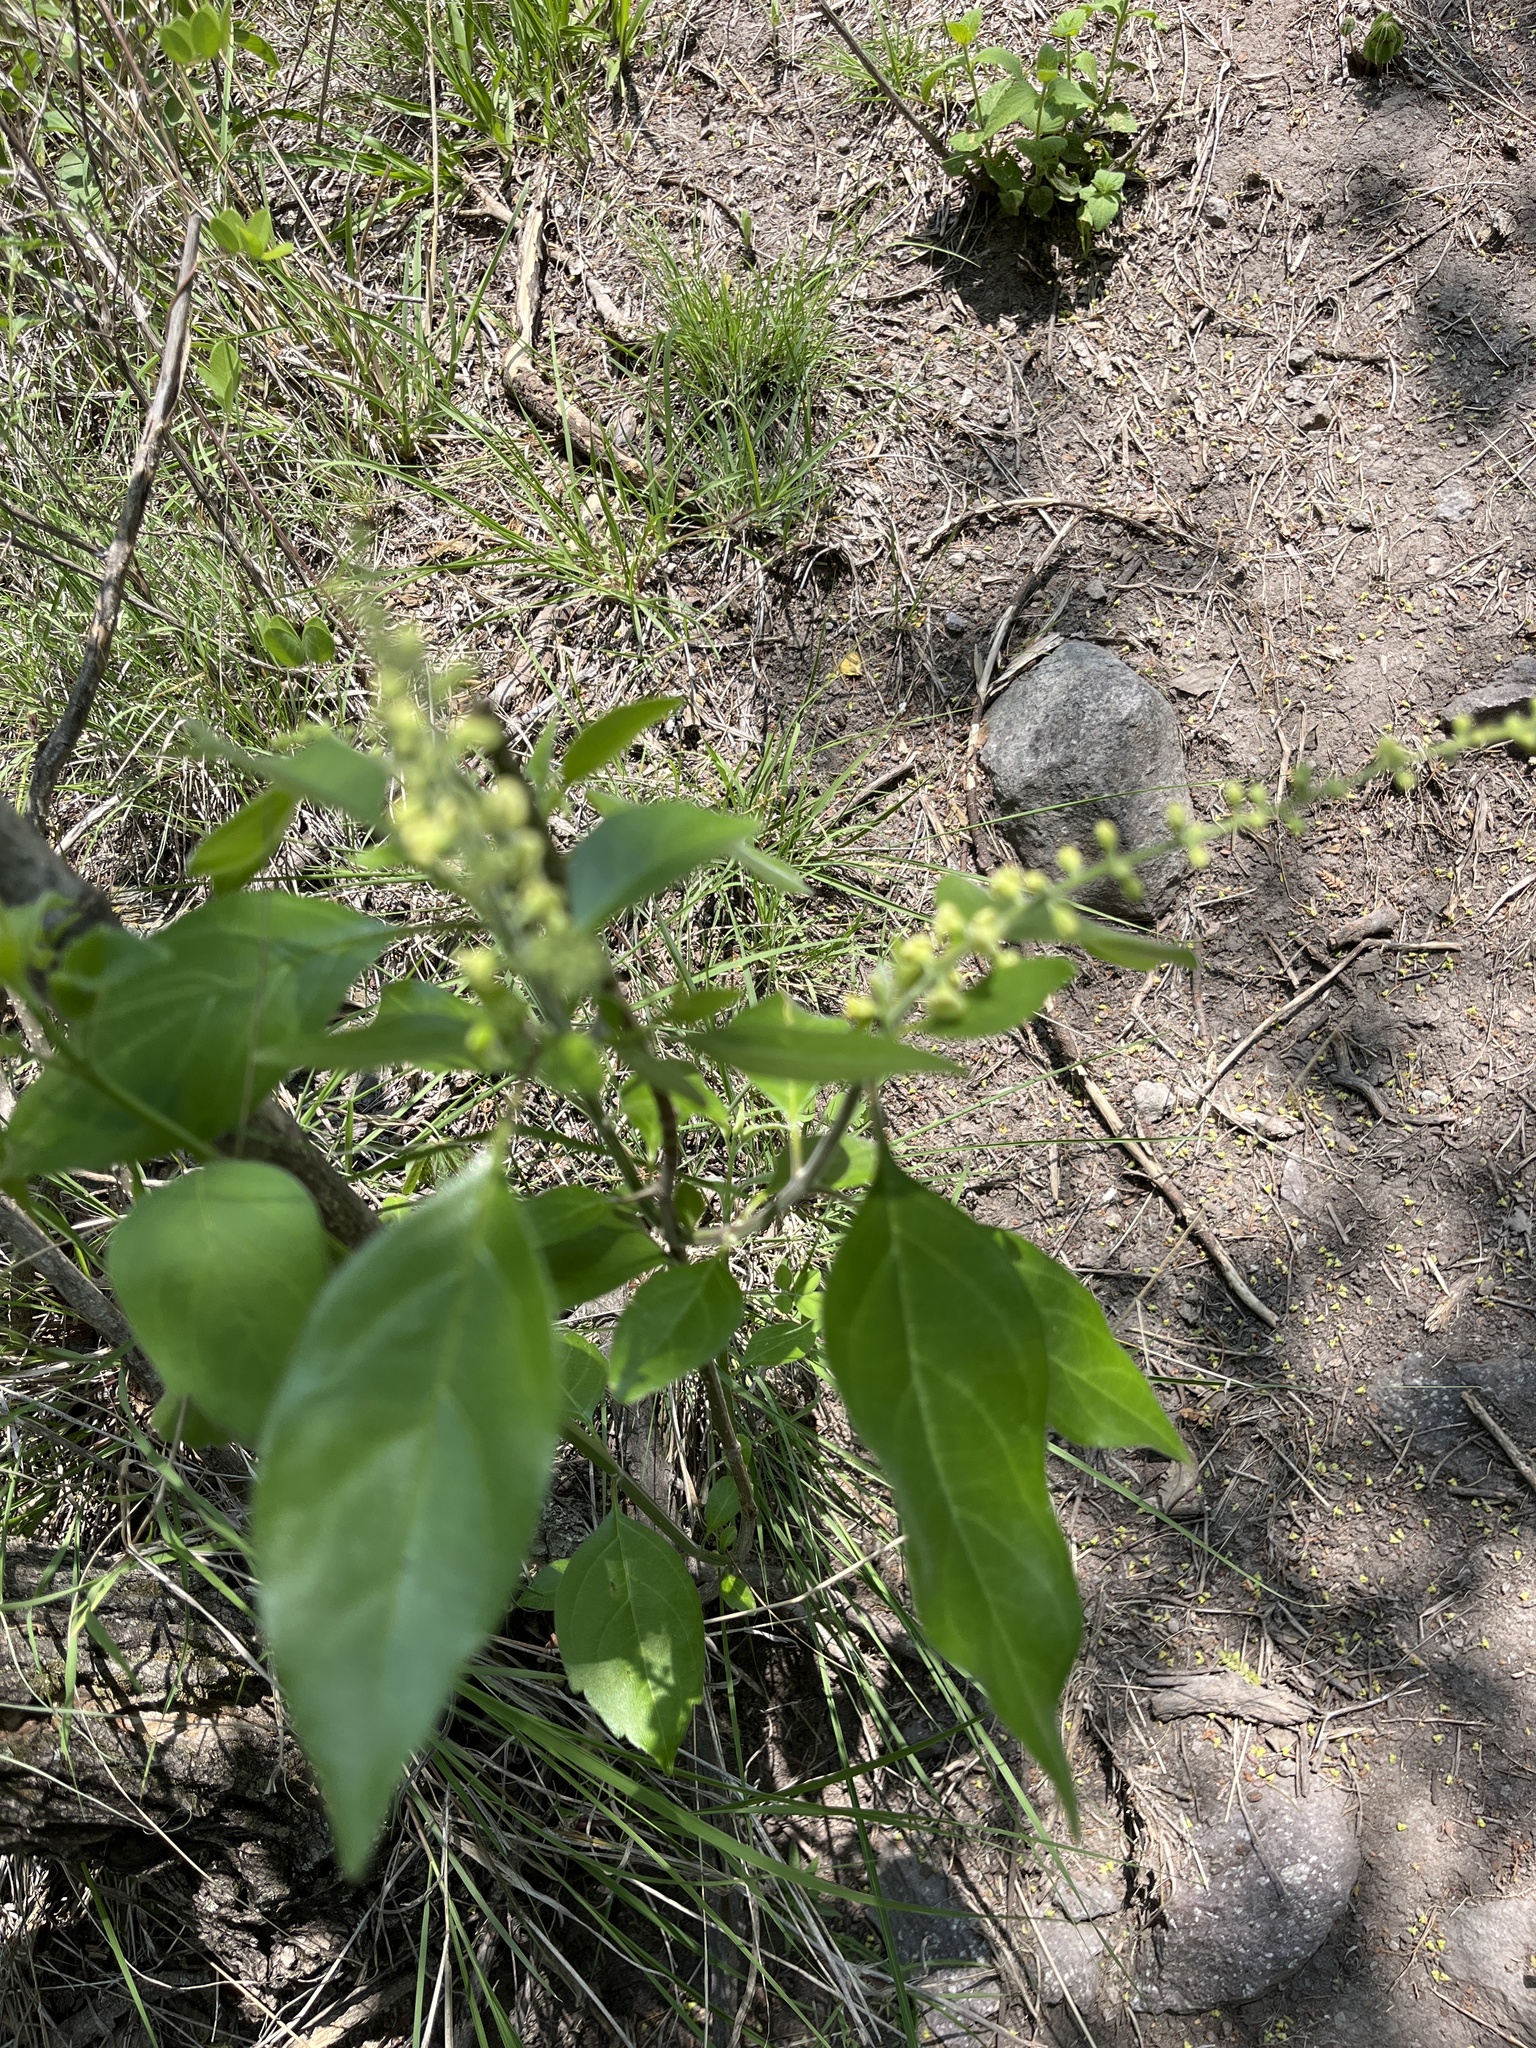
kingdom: Plantae
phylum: Tracheophyta
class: Magnoliopsida
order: Caryophyllales
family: Phytolaccaceae
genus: Rivina
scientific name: Rivina humilis
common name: Rougeplant
